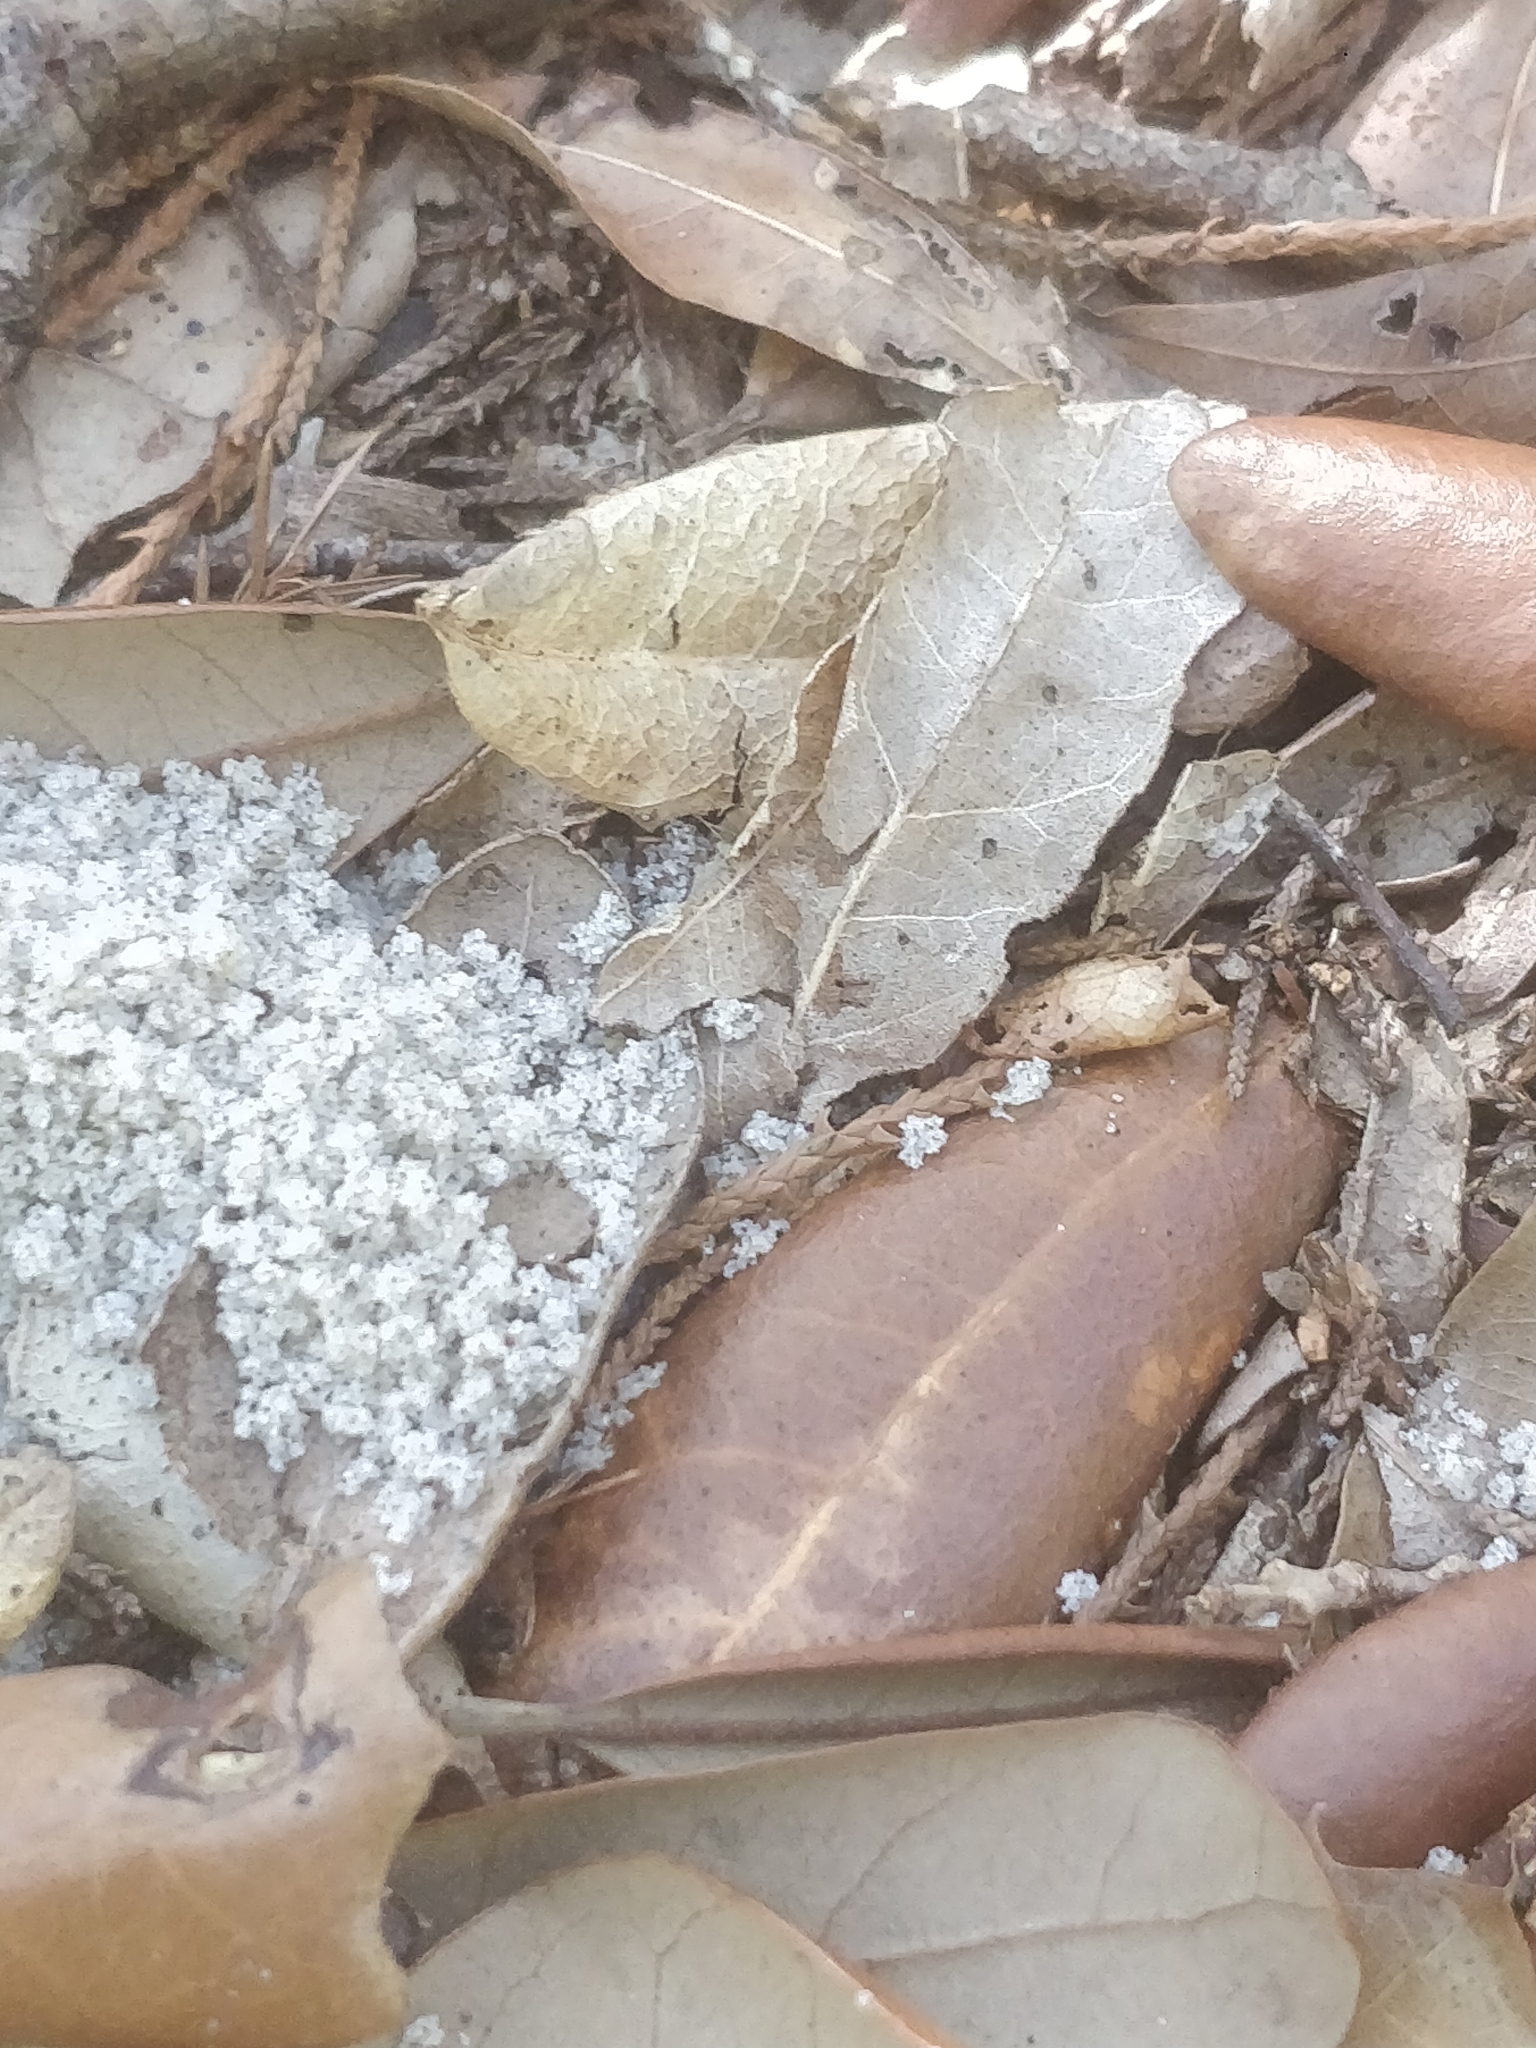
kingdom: Animalia
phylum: Arthropoda
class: Insecta
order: Hymenoptera
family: Formicidae
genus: Trachymyrmex
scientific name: Trachymyrmex septentrionalis
